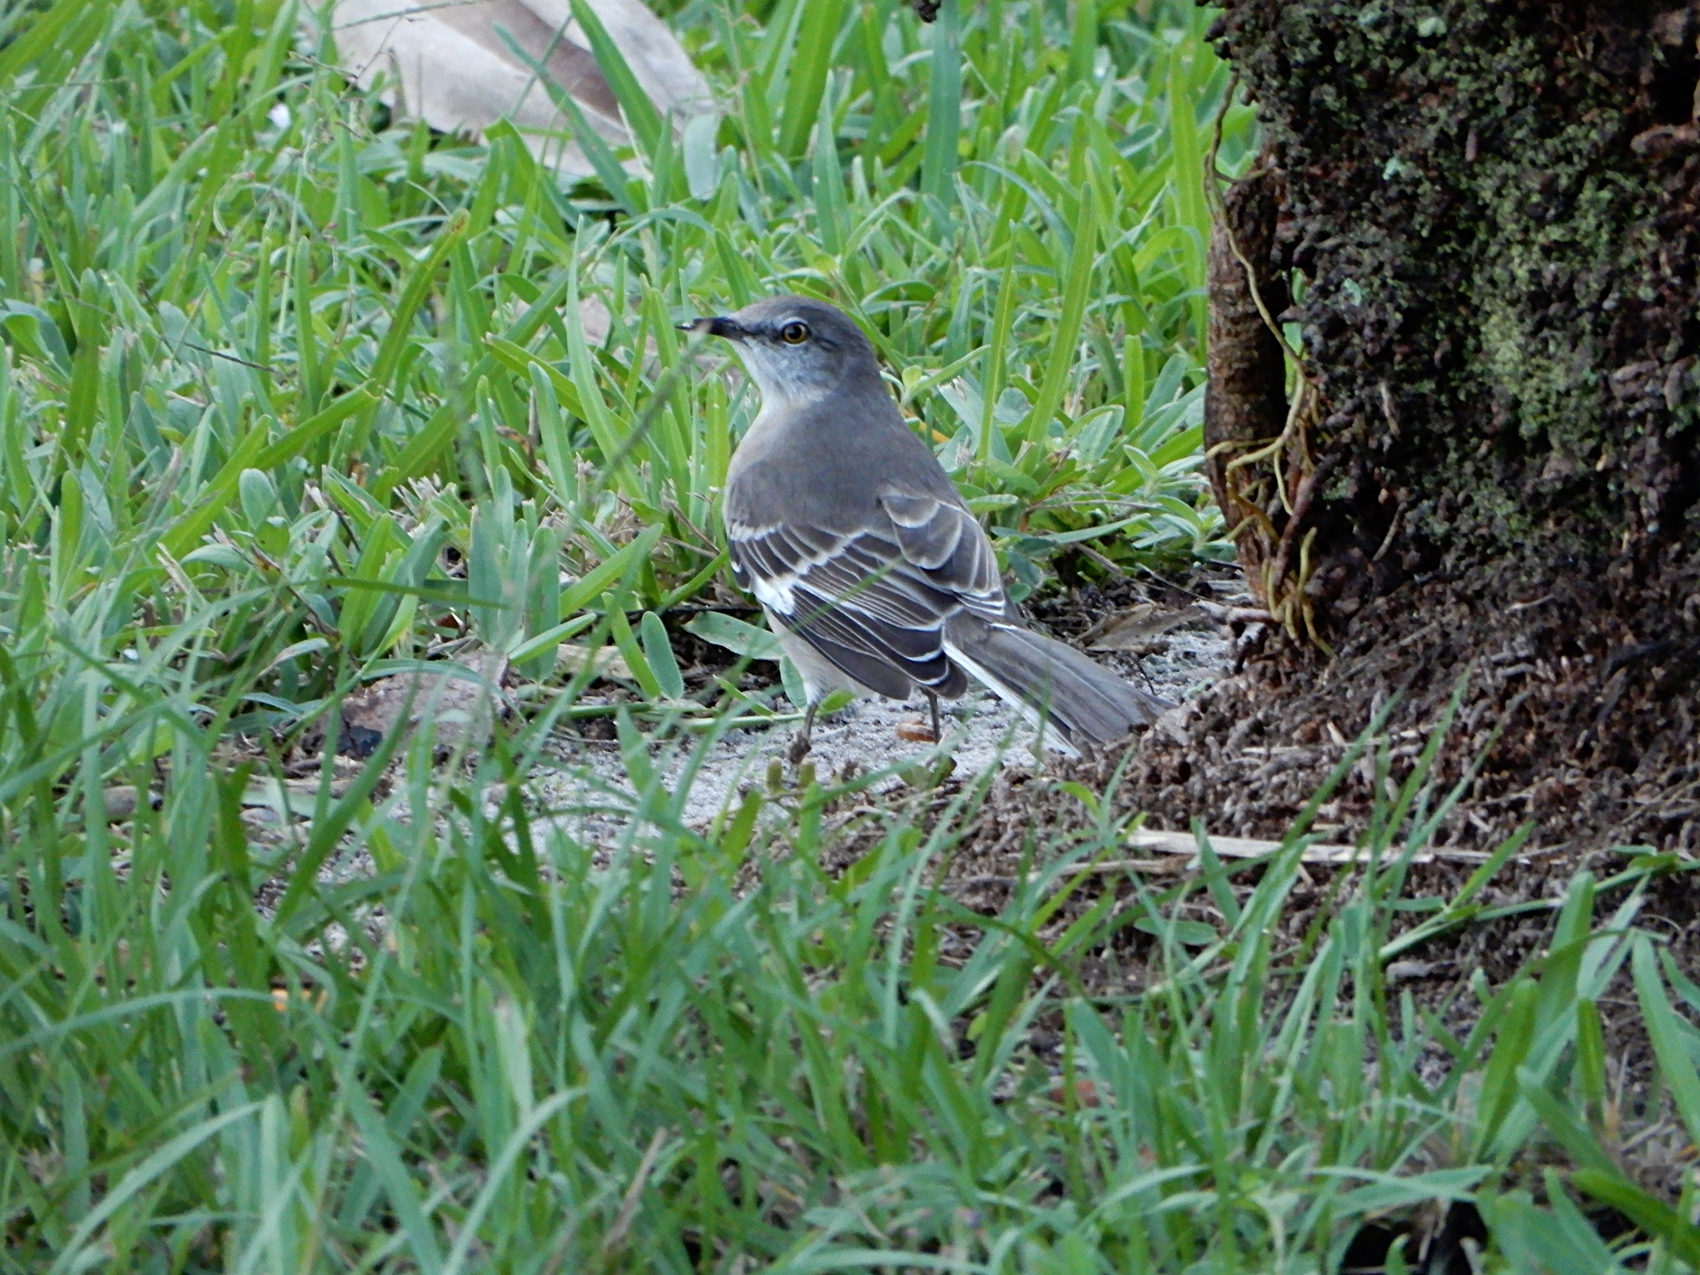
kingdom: Animalia
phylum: Chordata
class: Aves
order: Passeriformes
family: Mimidae
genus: Mimus
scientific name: Mimus polyglottos
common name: Northern mockingbird
